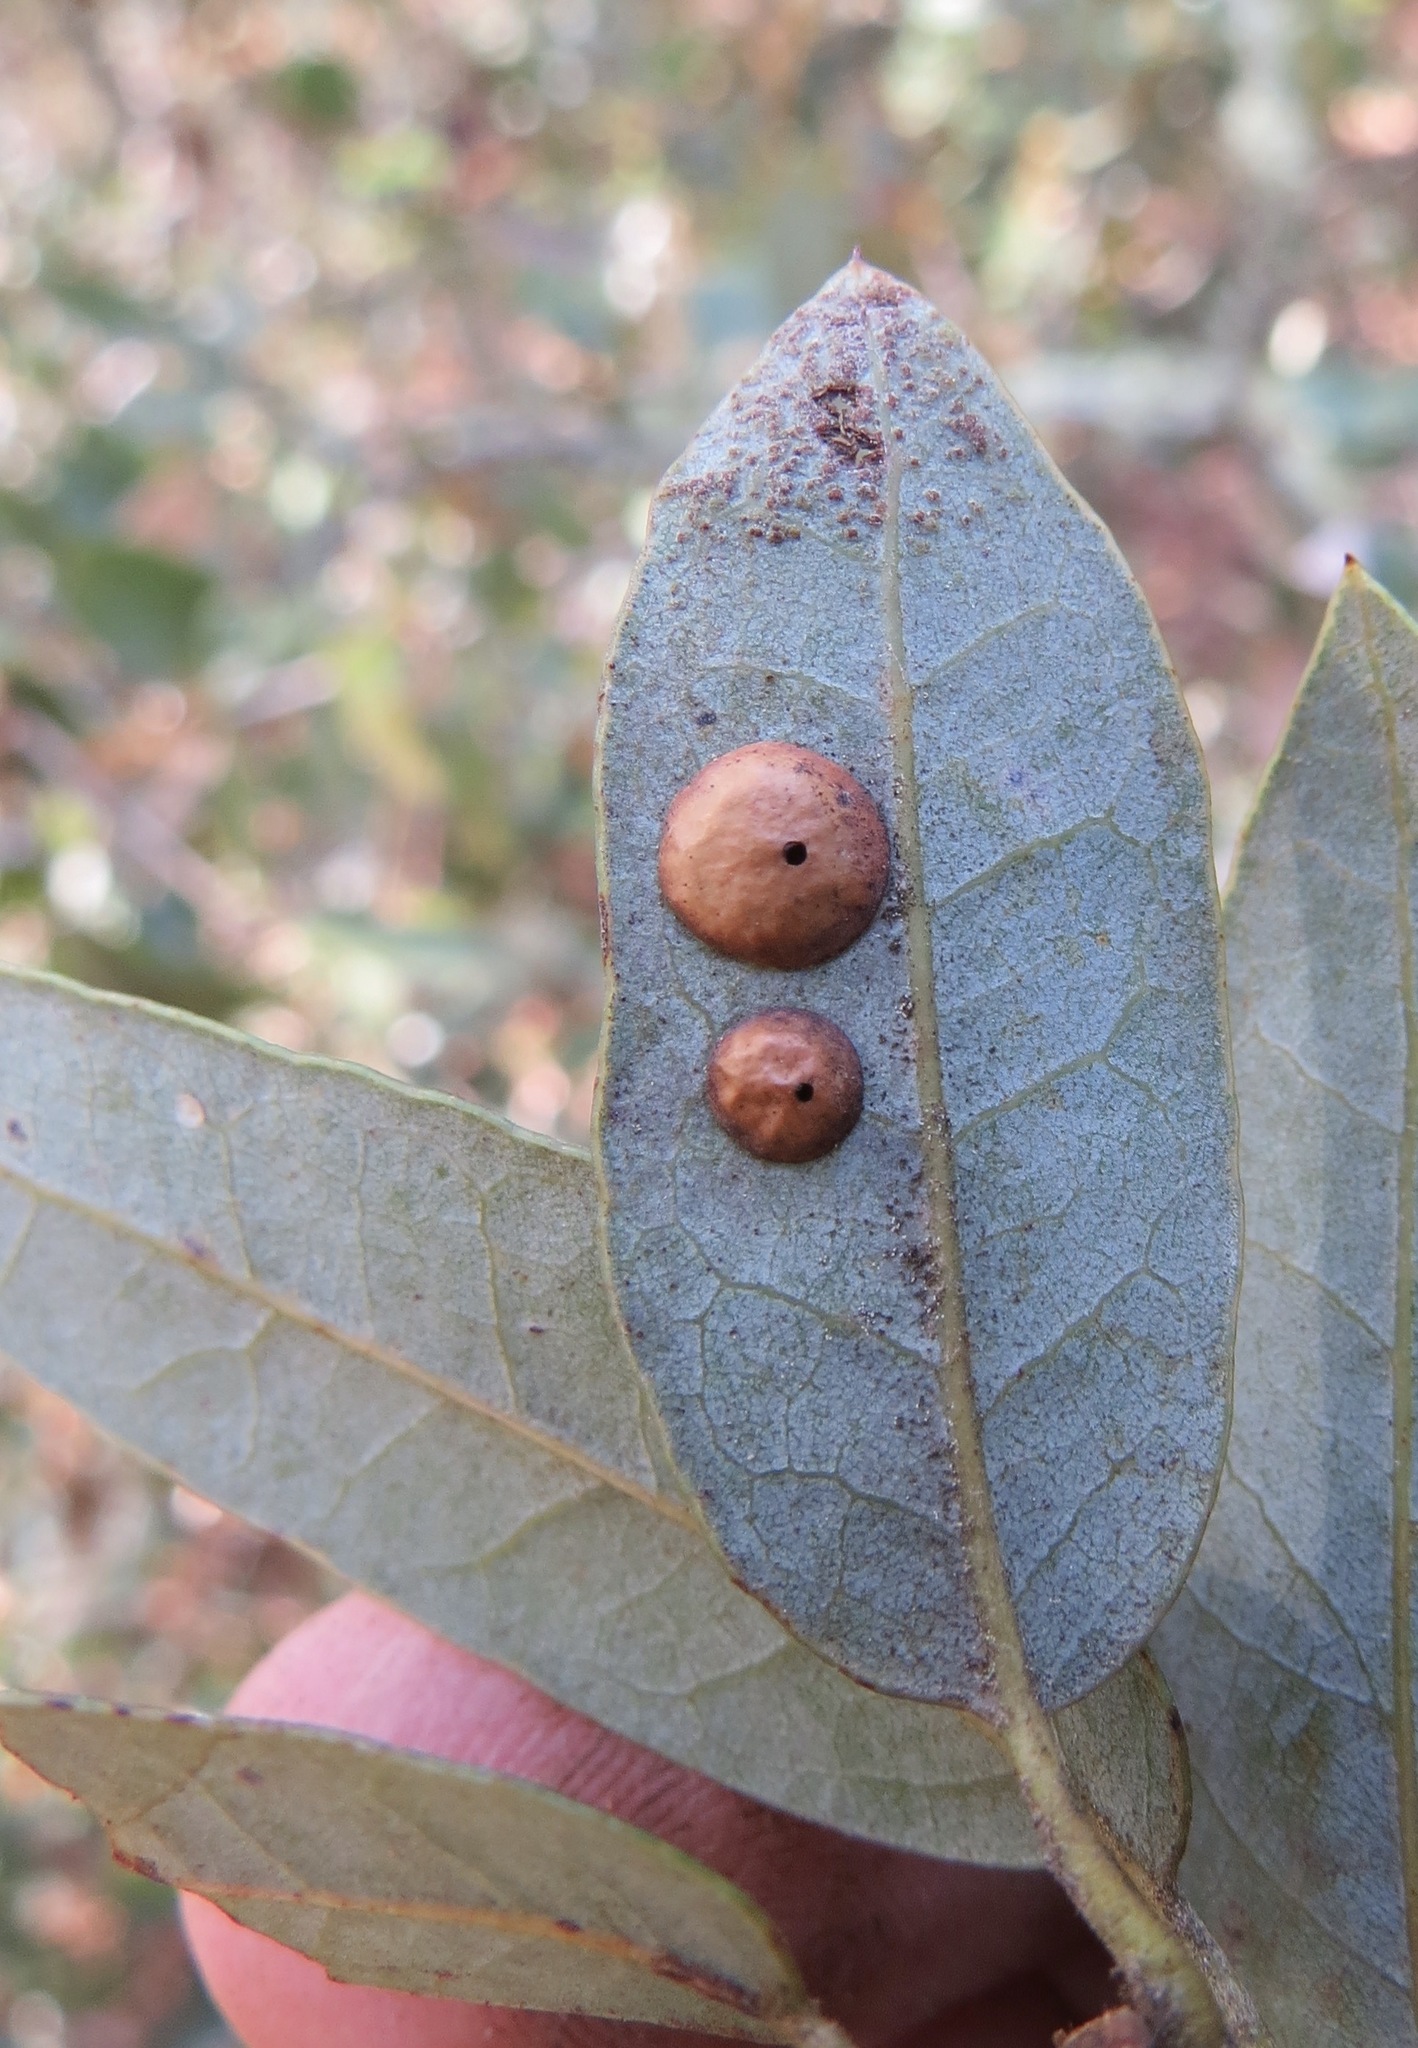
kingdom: Animalia
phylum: Arthropoda
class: Insecta
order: Hymenoptera
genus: Paracraspis
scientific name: Paracraspis
